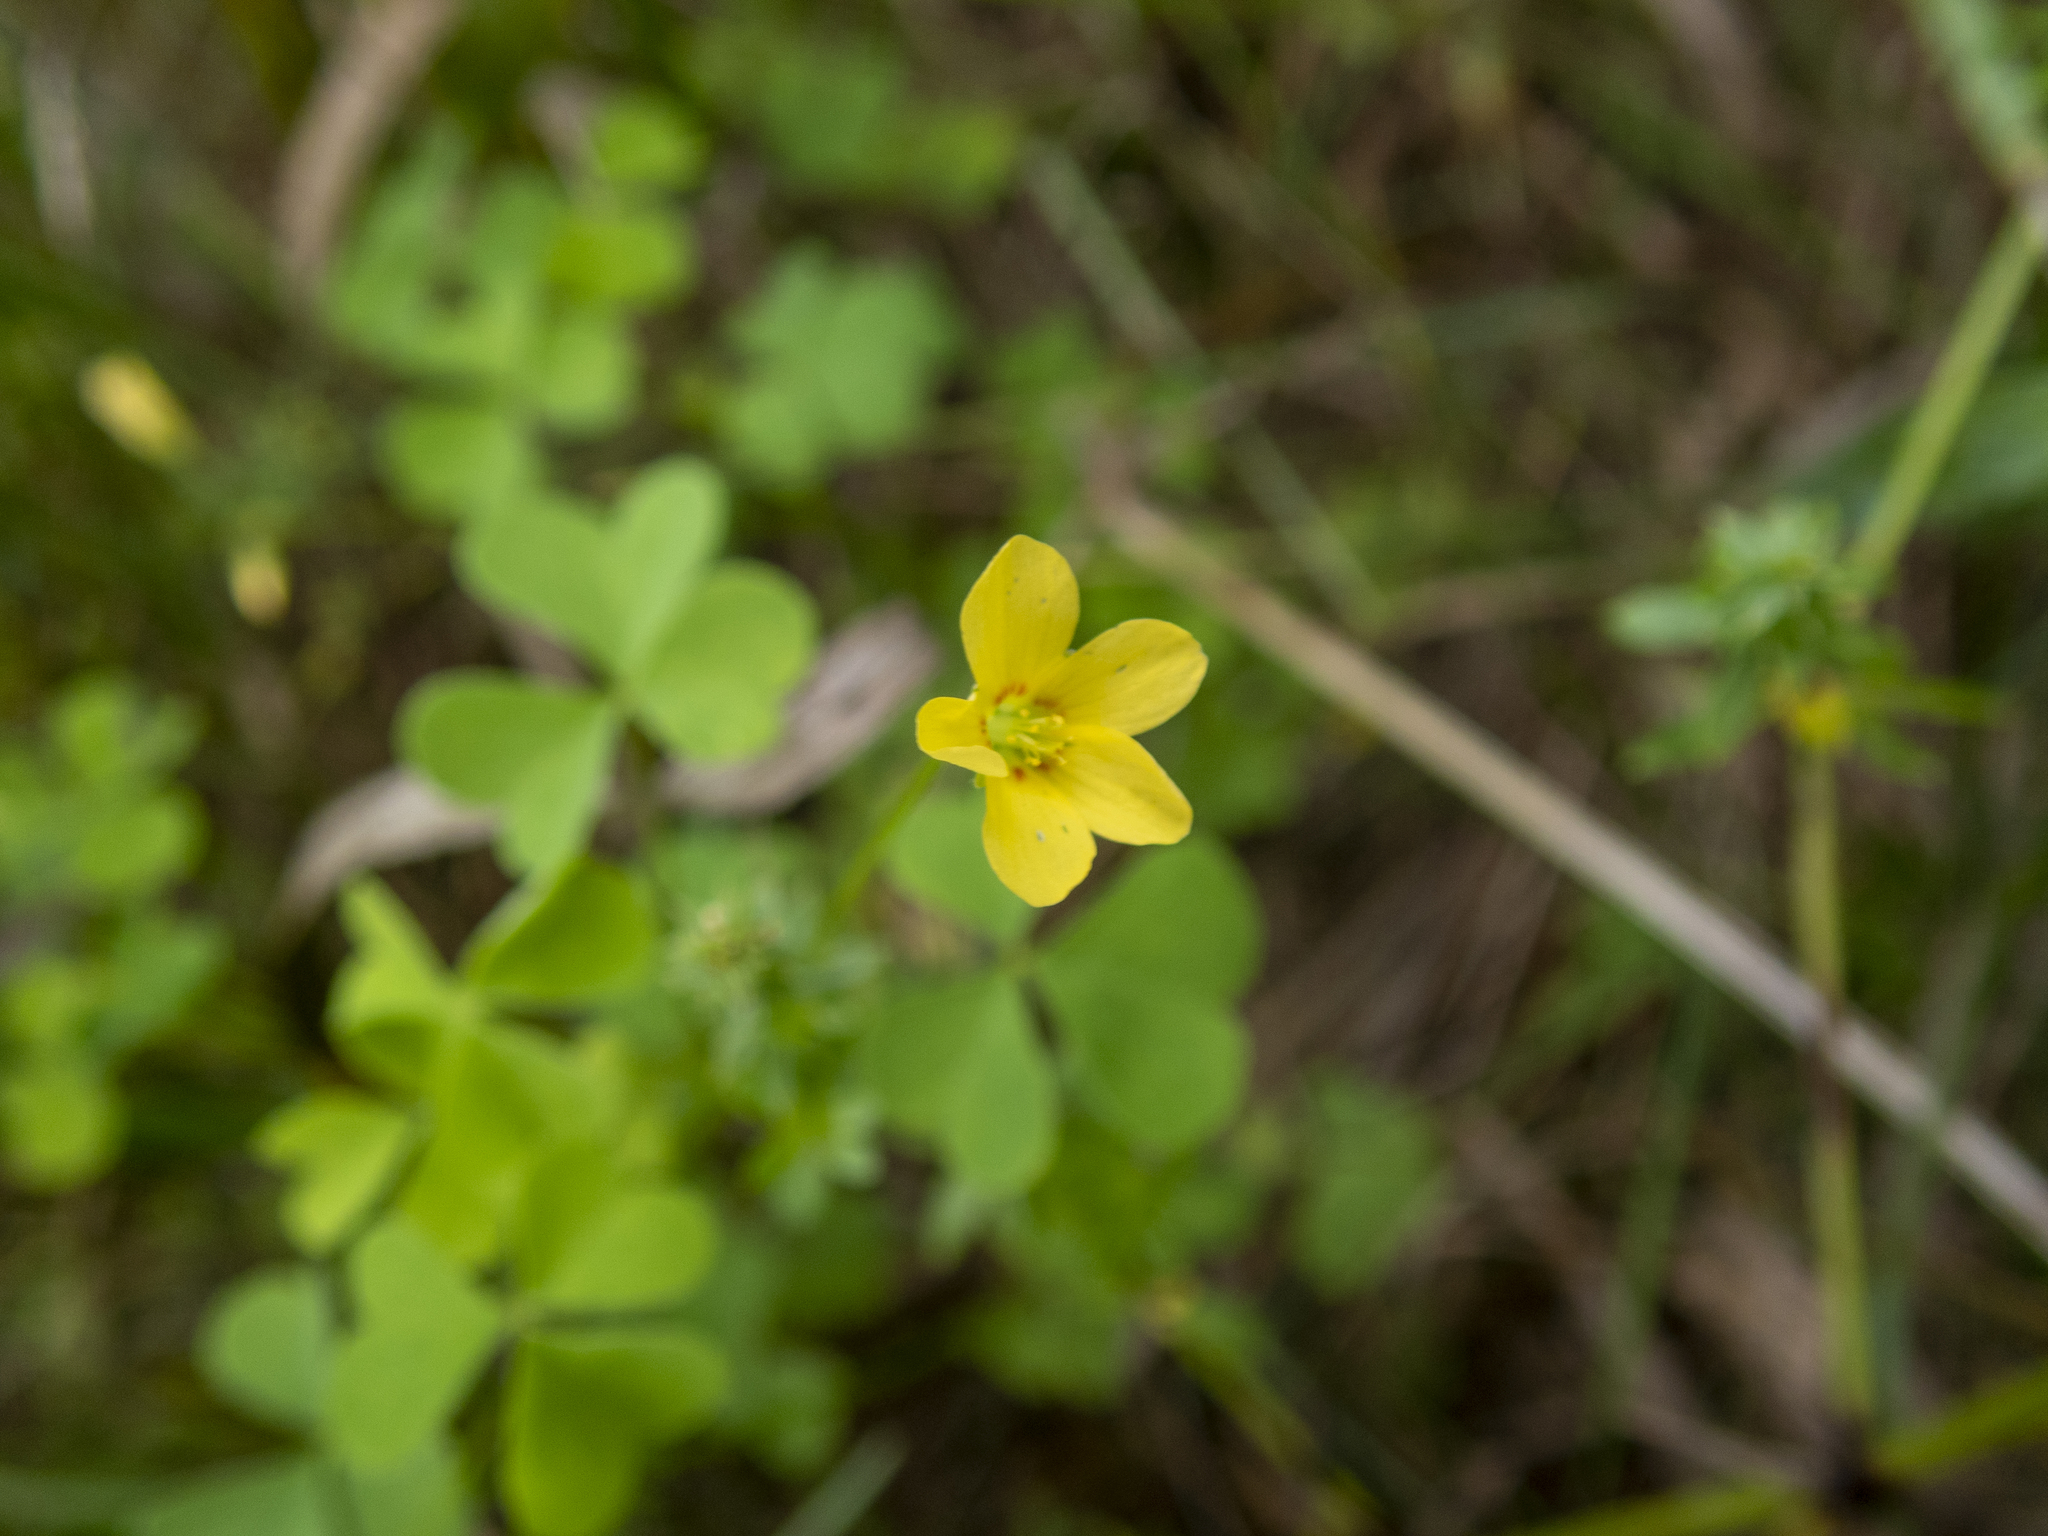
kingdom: Plantae
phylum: Tracheophyta
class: Magnoliopsida
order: Oxalidales
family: Oxalidaceae
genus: Oxalis
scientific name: Oxalis dillenii
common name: Sussex yellow-sorrel
